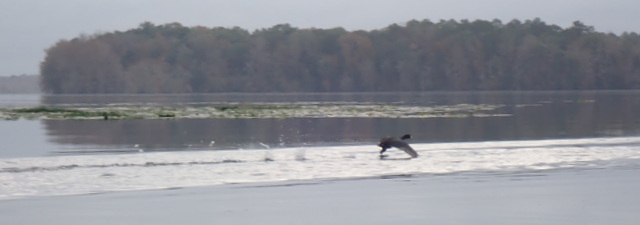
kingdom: Animalia
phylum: Chordata
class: Aves
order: Gruiformes
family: Rallidae
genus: Fulica
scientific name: Fulica americana
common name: American coot
